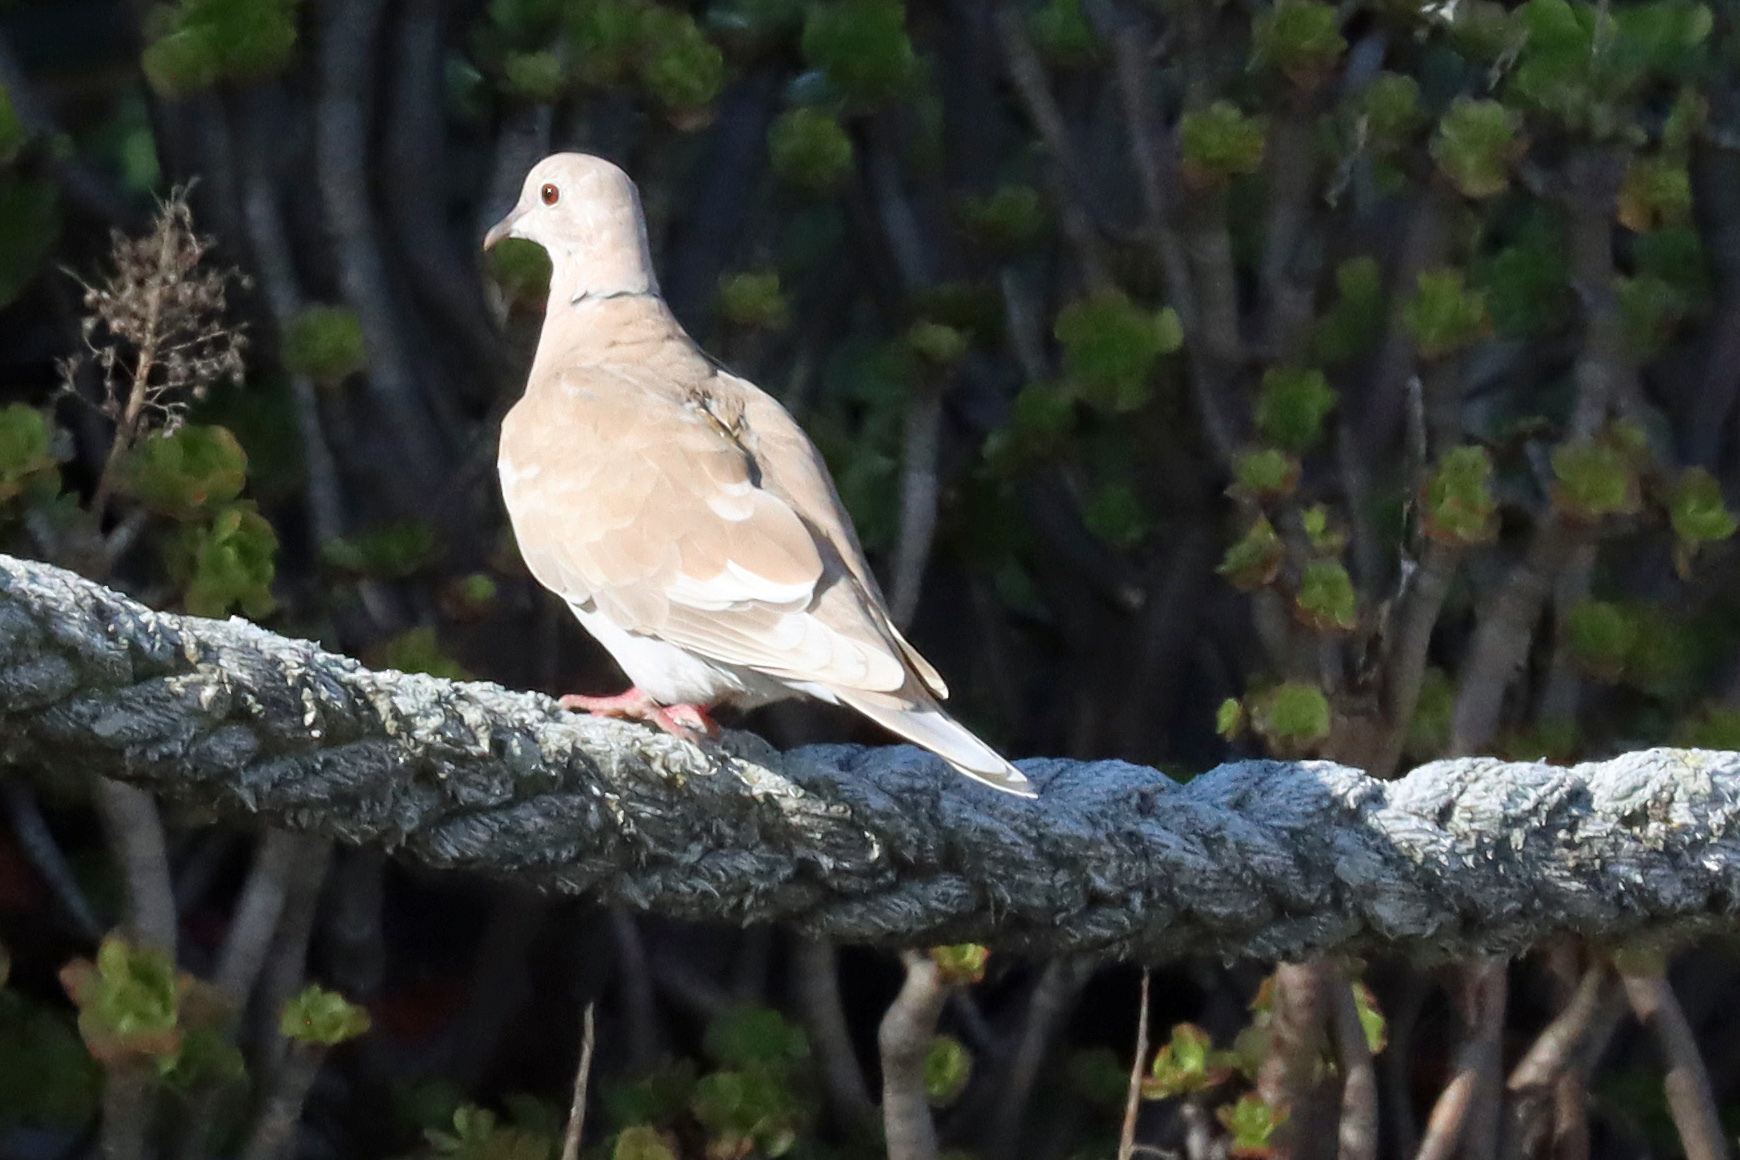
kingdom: Animalia
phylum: Chordata
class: Aves
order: Columbiformes
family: Columbidae
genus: Streptopelia
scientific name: Streptopelia
